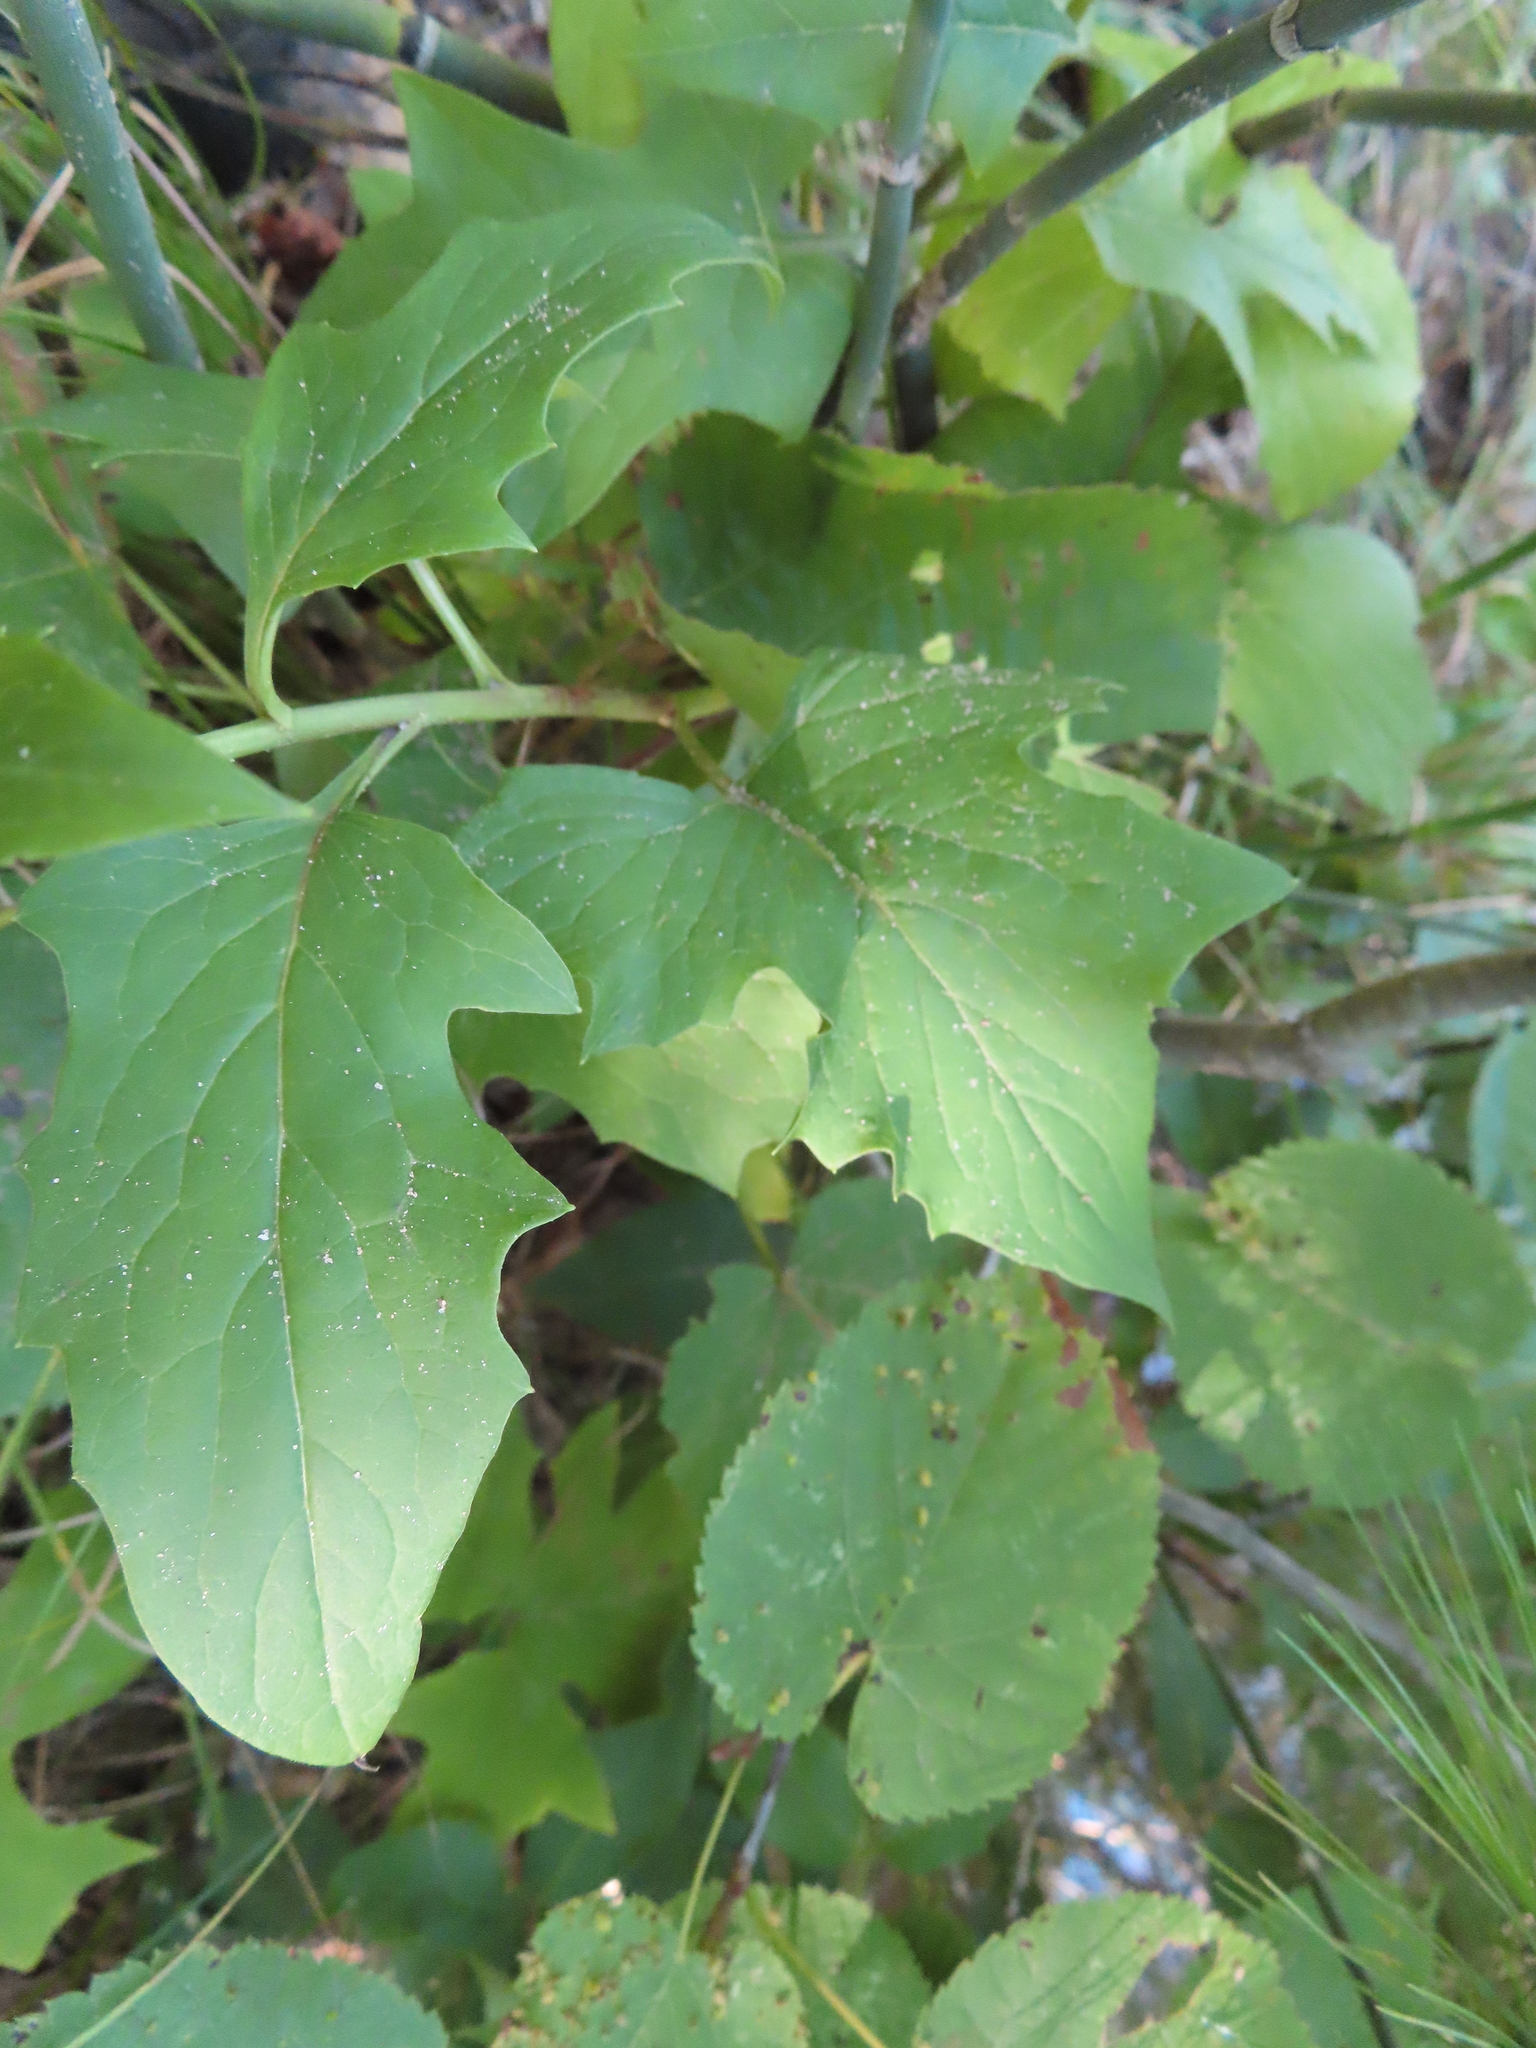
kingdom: Plantae
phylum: Tracheophyta
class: Magnoliopsida
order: Asterales
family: Asteraceae
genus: Nabalus
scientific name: Nabalus albus
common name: White rattlesnakeroot
